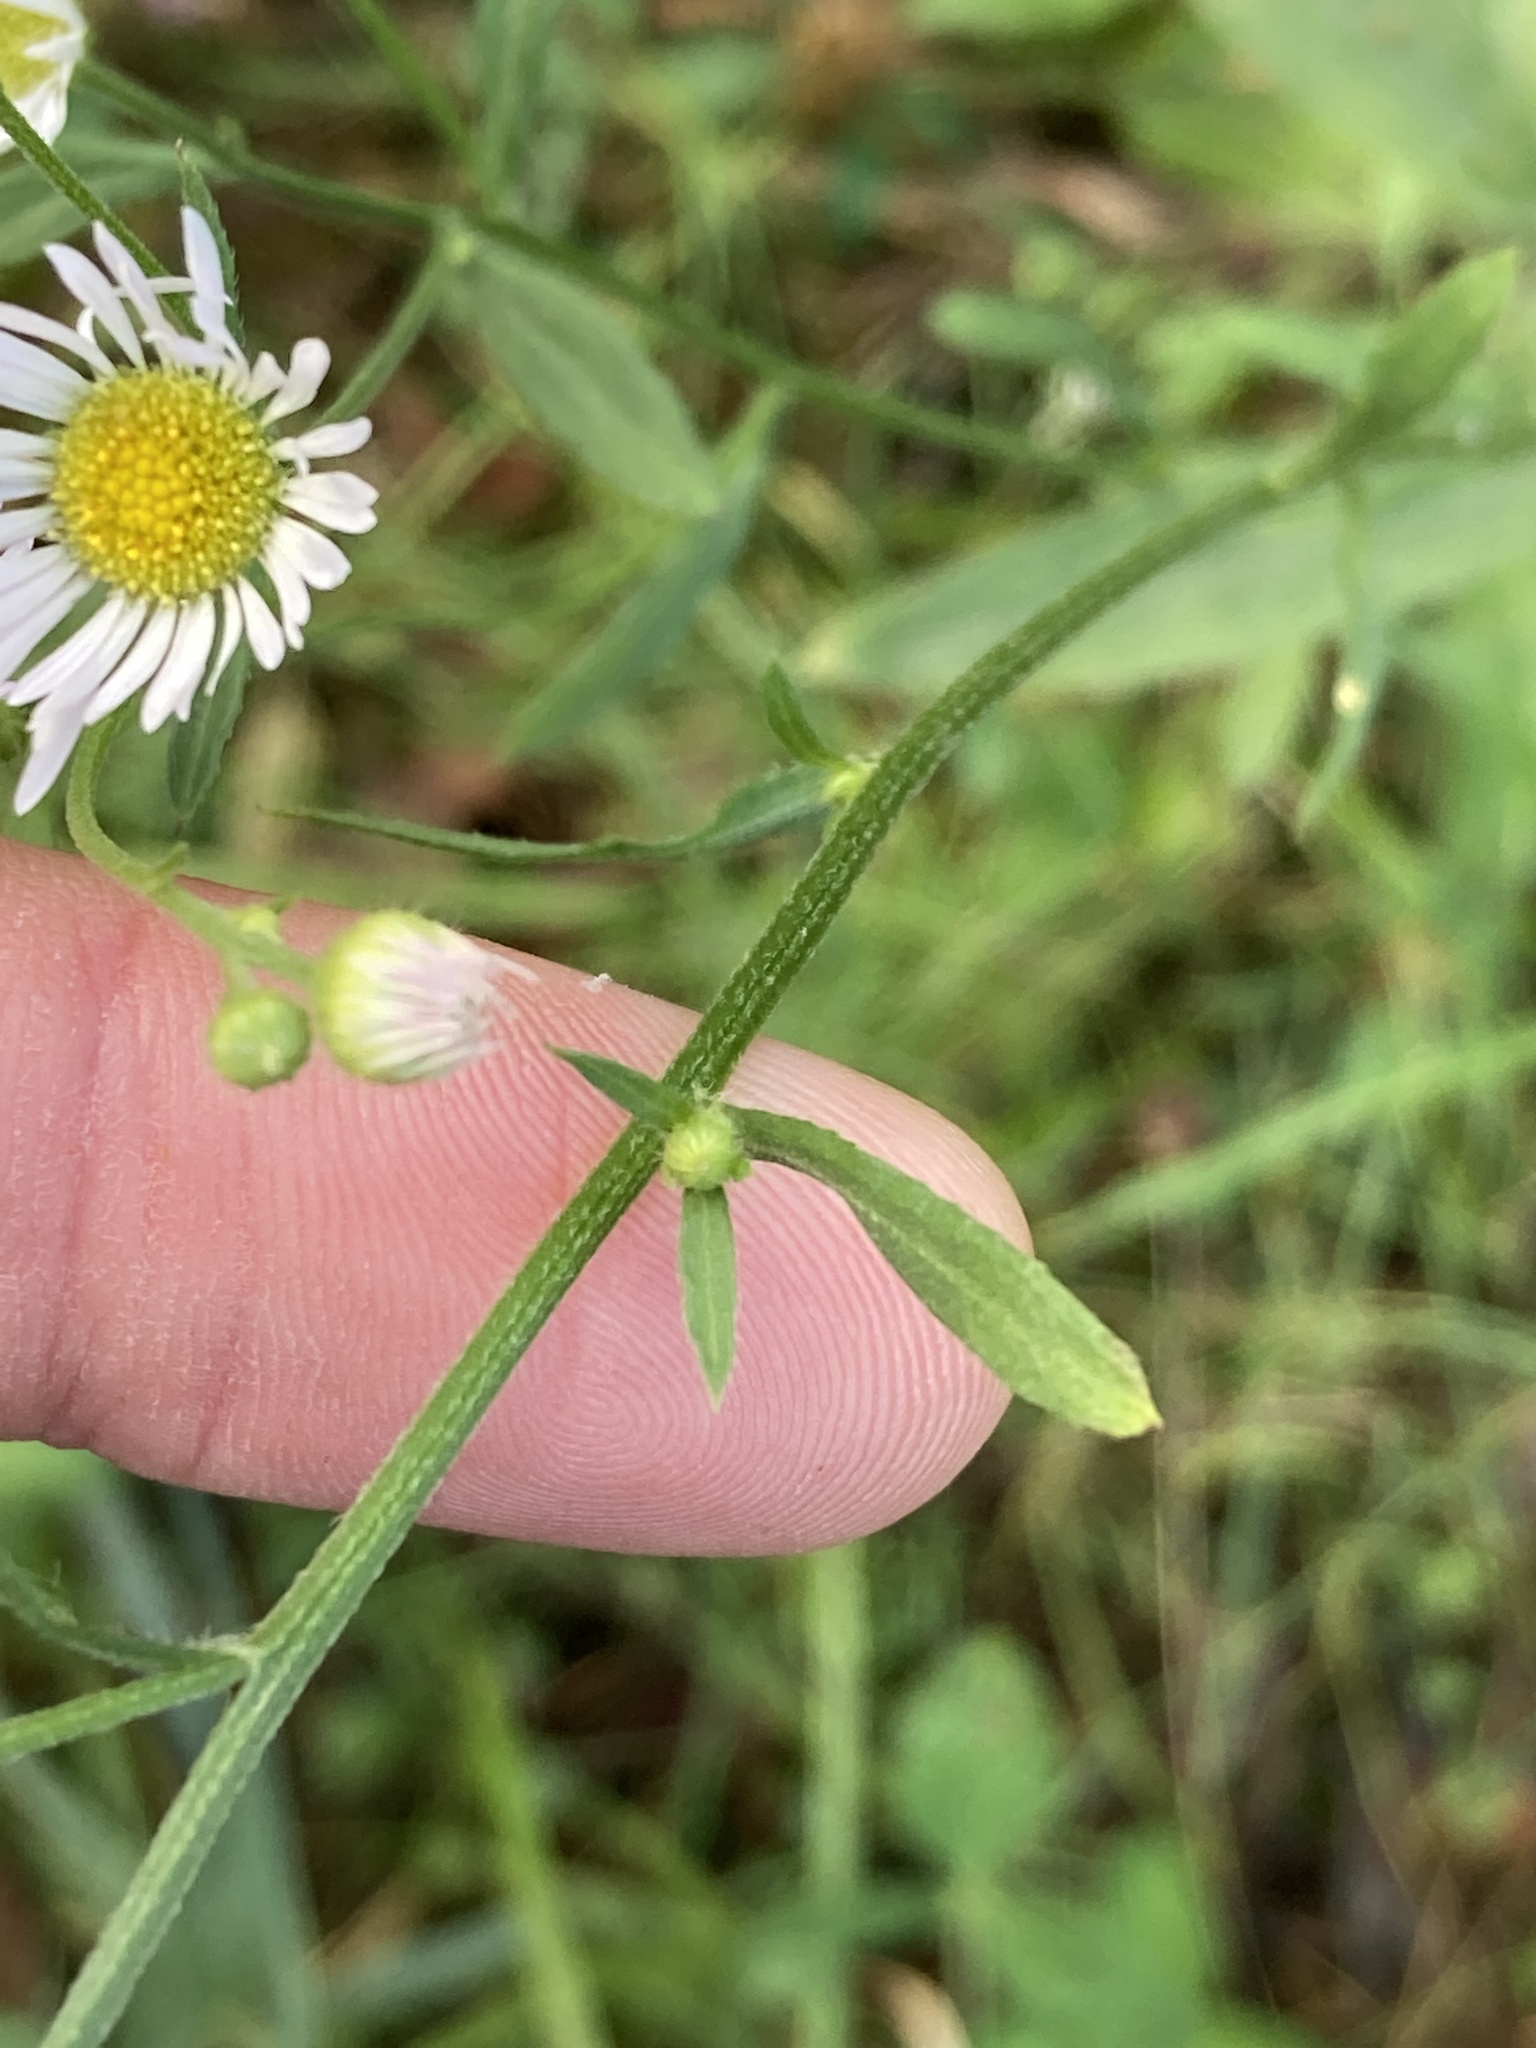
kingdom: Plantae
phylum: Tracheophyta
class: Magnoliopsida
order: Asterales
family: Asteraceae
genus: Erigeron
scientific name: Erigeron strigosus
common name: Common eastern fleabane
